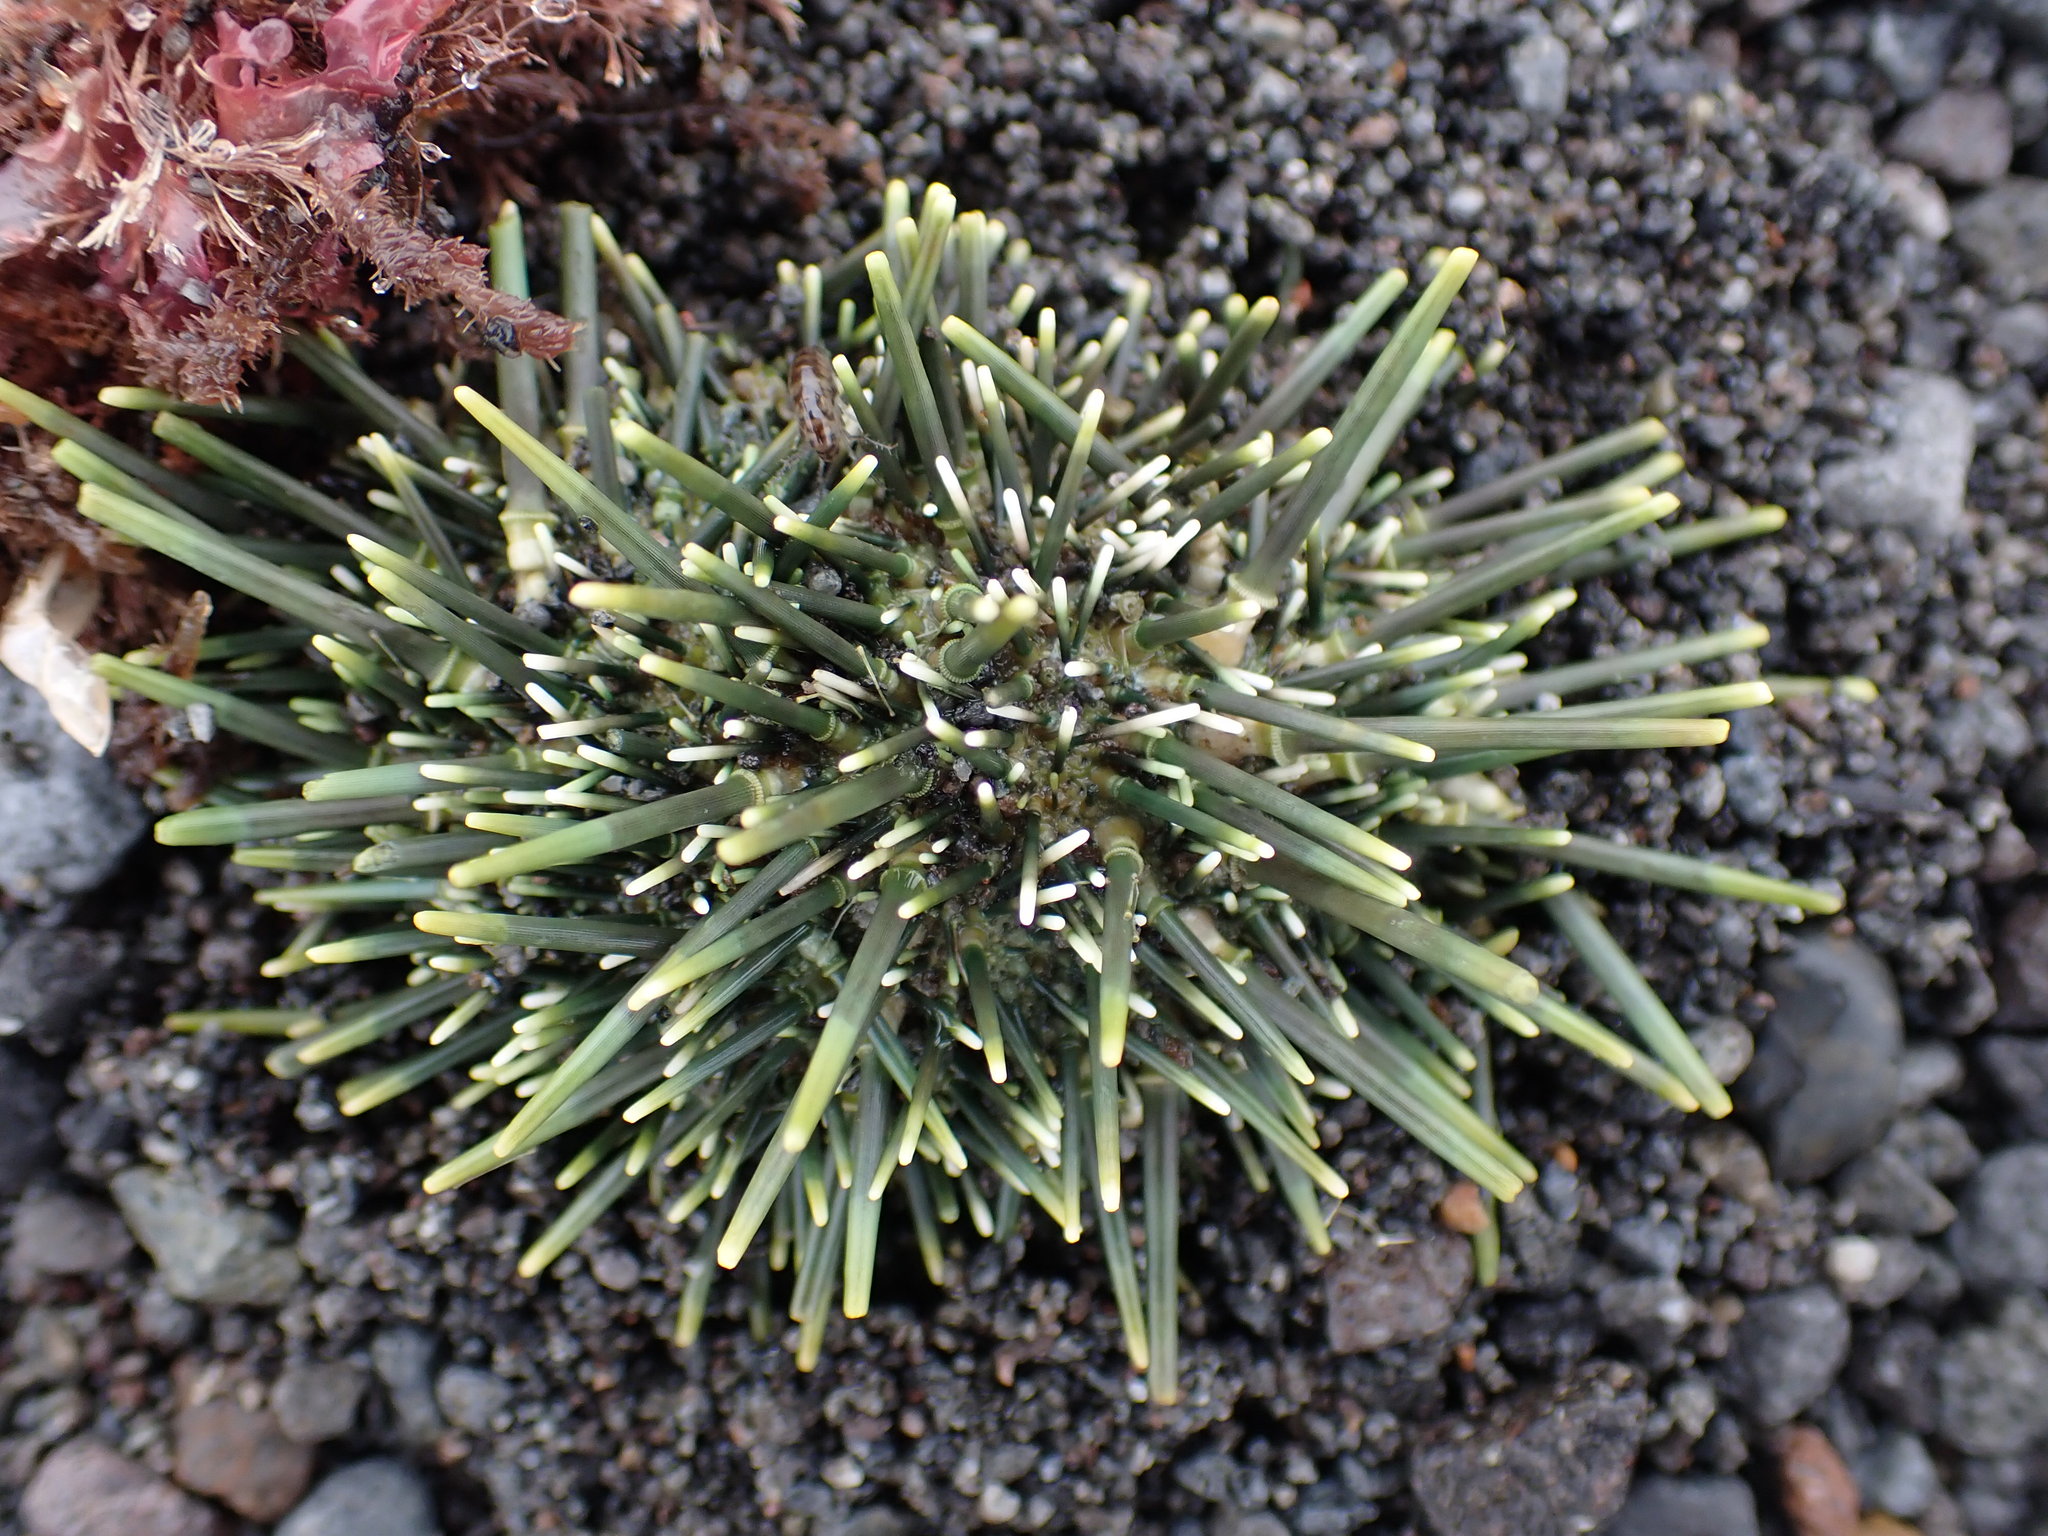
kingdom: Animalia
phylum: Echinodermata
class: Echinoidea
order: Camarodonta
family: Echinometridae
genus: Evechinus
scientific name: Evechinus chloroticus
